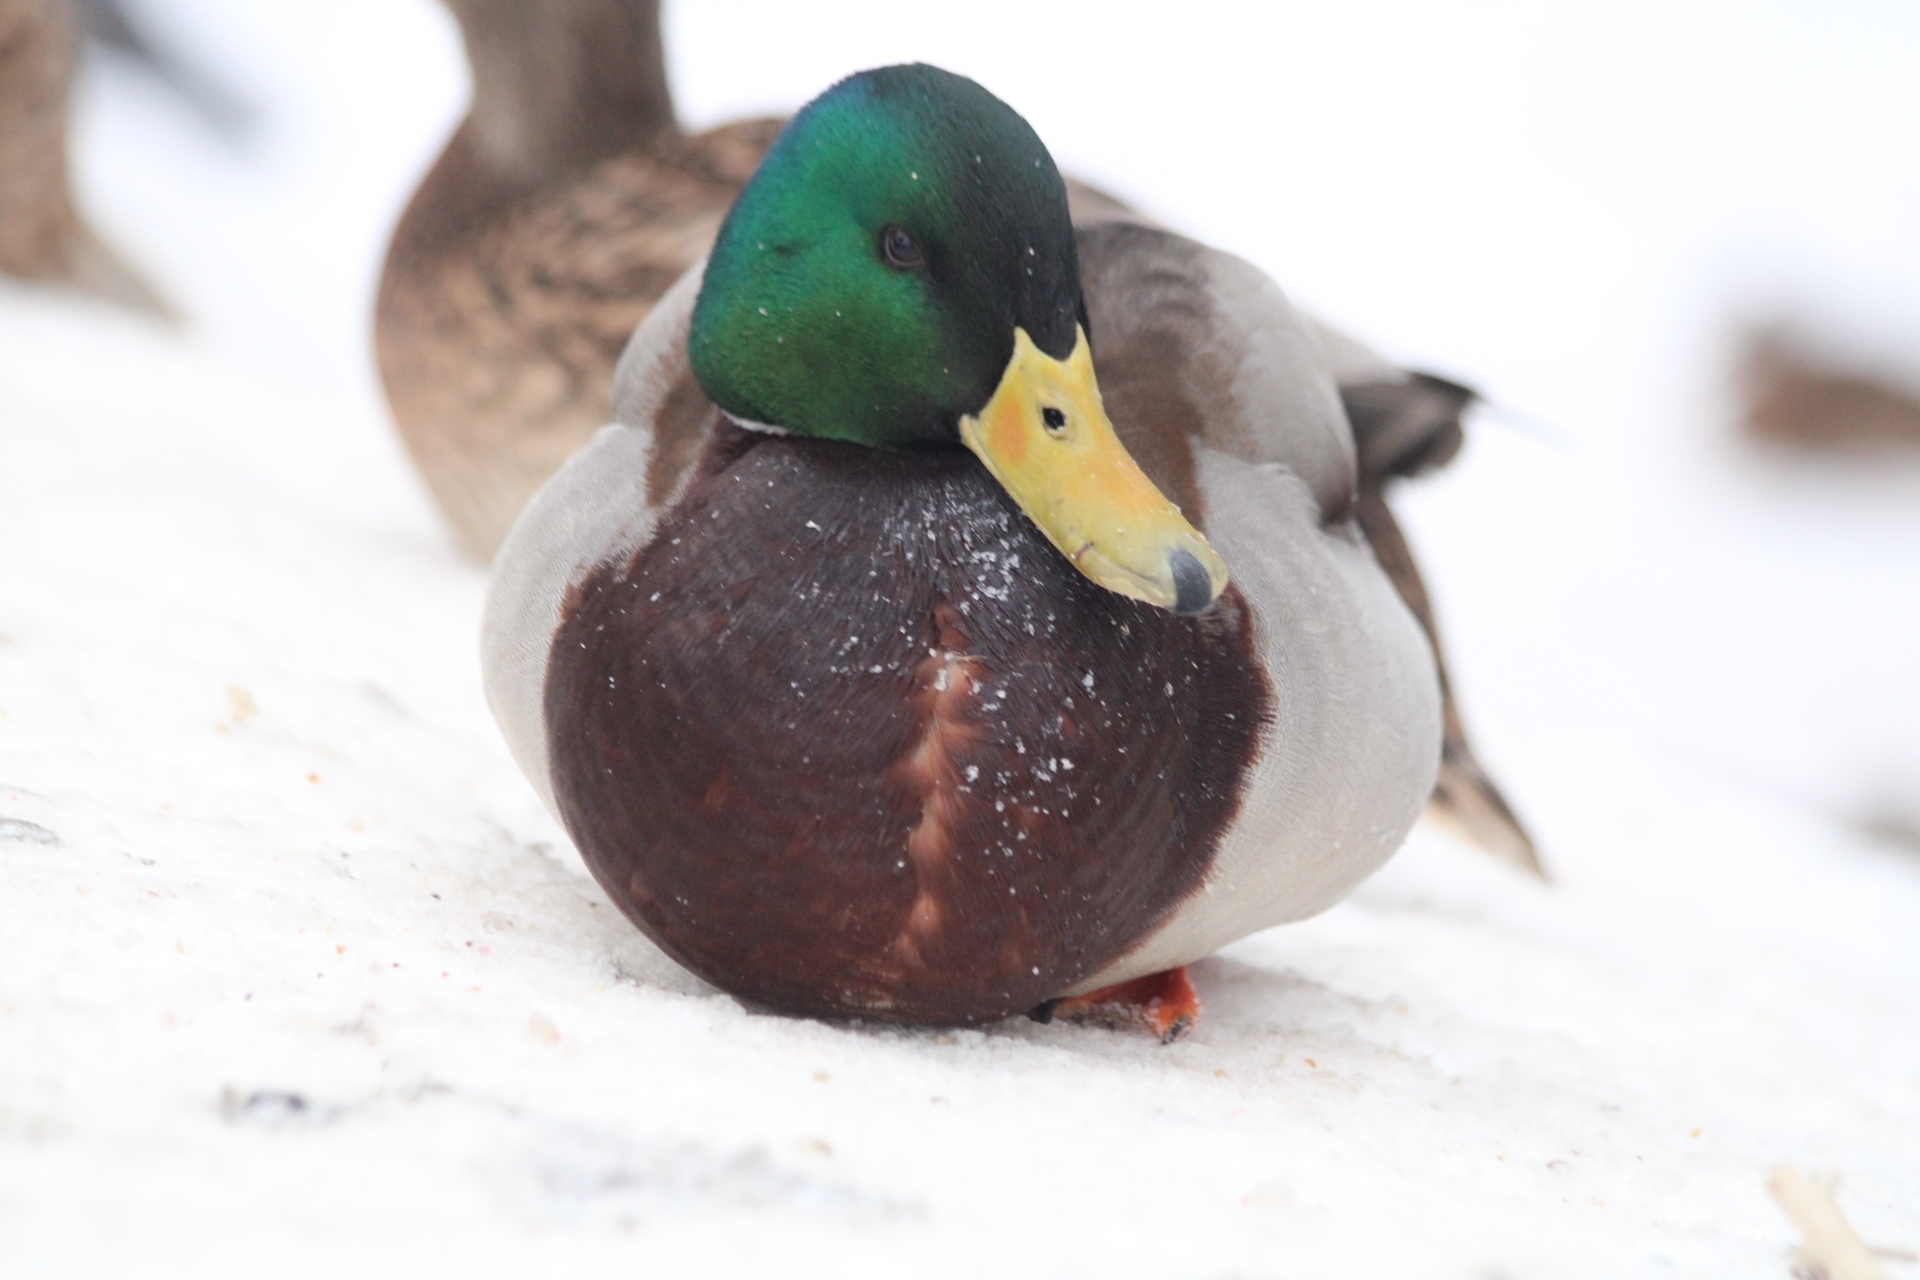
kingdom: Animalia
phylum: Chordata
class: Aves
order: Anseriformes
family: Anatidae
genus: Anas
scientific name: Anas platyrhynchos
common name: Mallard
